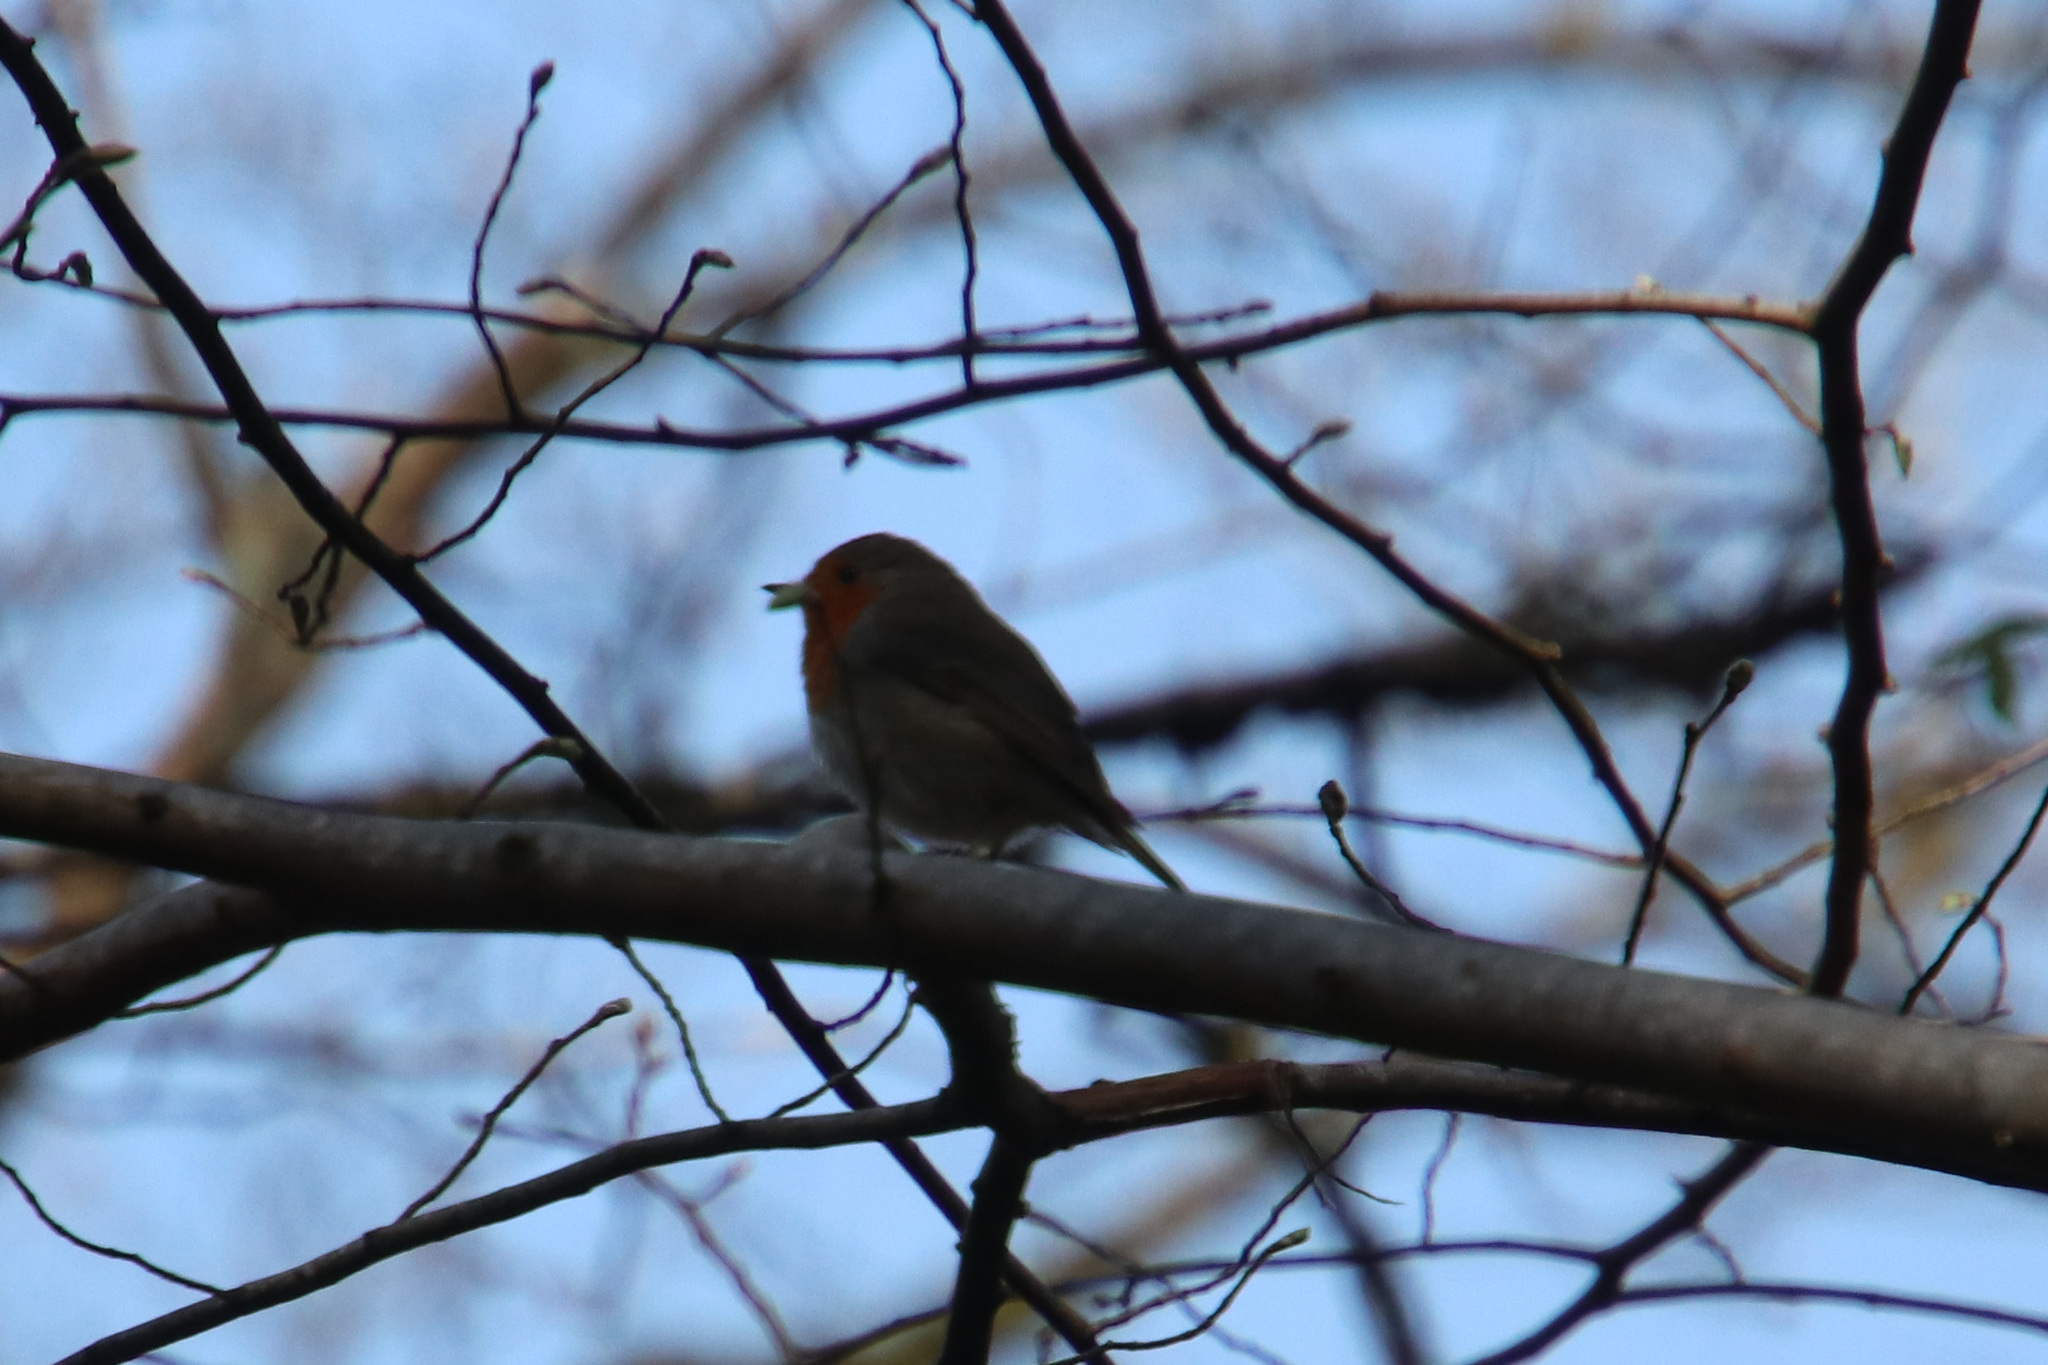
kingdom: Animalia
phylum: Chordata
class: Aves
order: Passeriformes
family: Muscicapidae
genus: Erithacus
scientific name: Erithacus rubecula
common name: European robin
